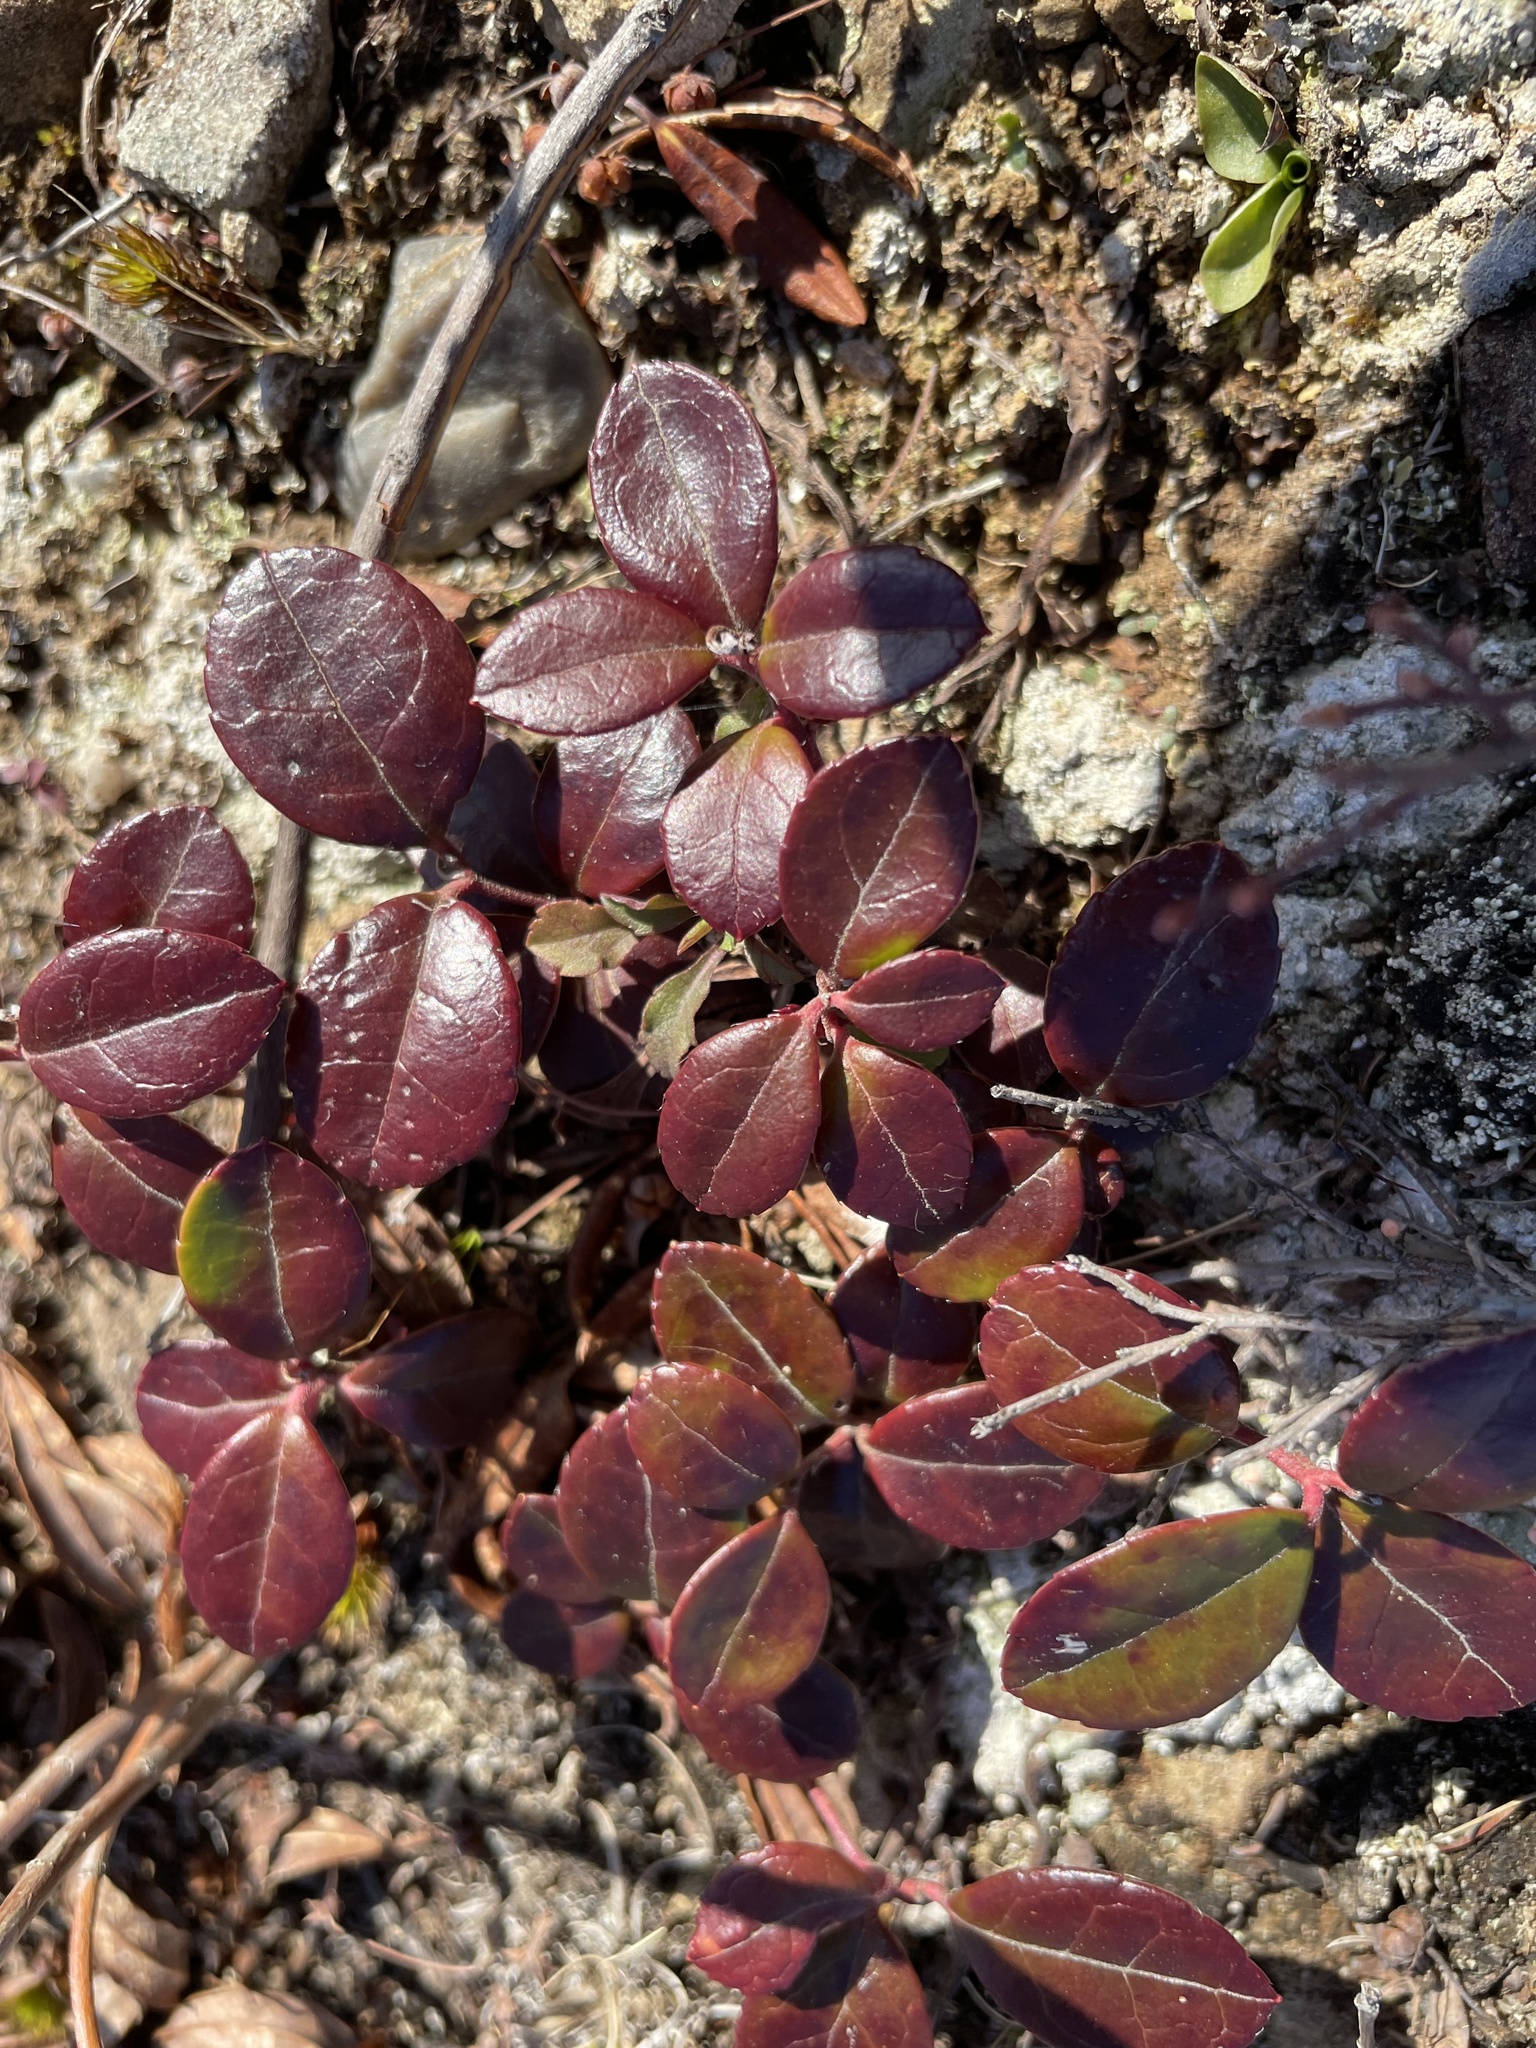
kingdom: Plantae
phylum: Tracheophyta
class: Magnoliopsida
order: Ericales
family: Ericaceae
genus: Gaultheria
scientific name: Gaultheria procumbens
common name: Checkerberry
